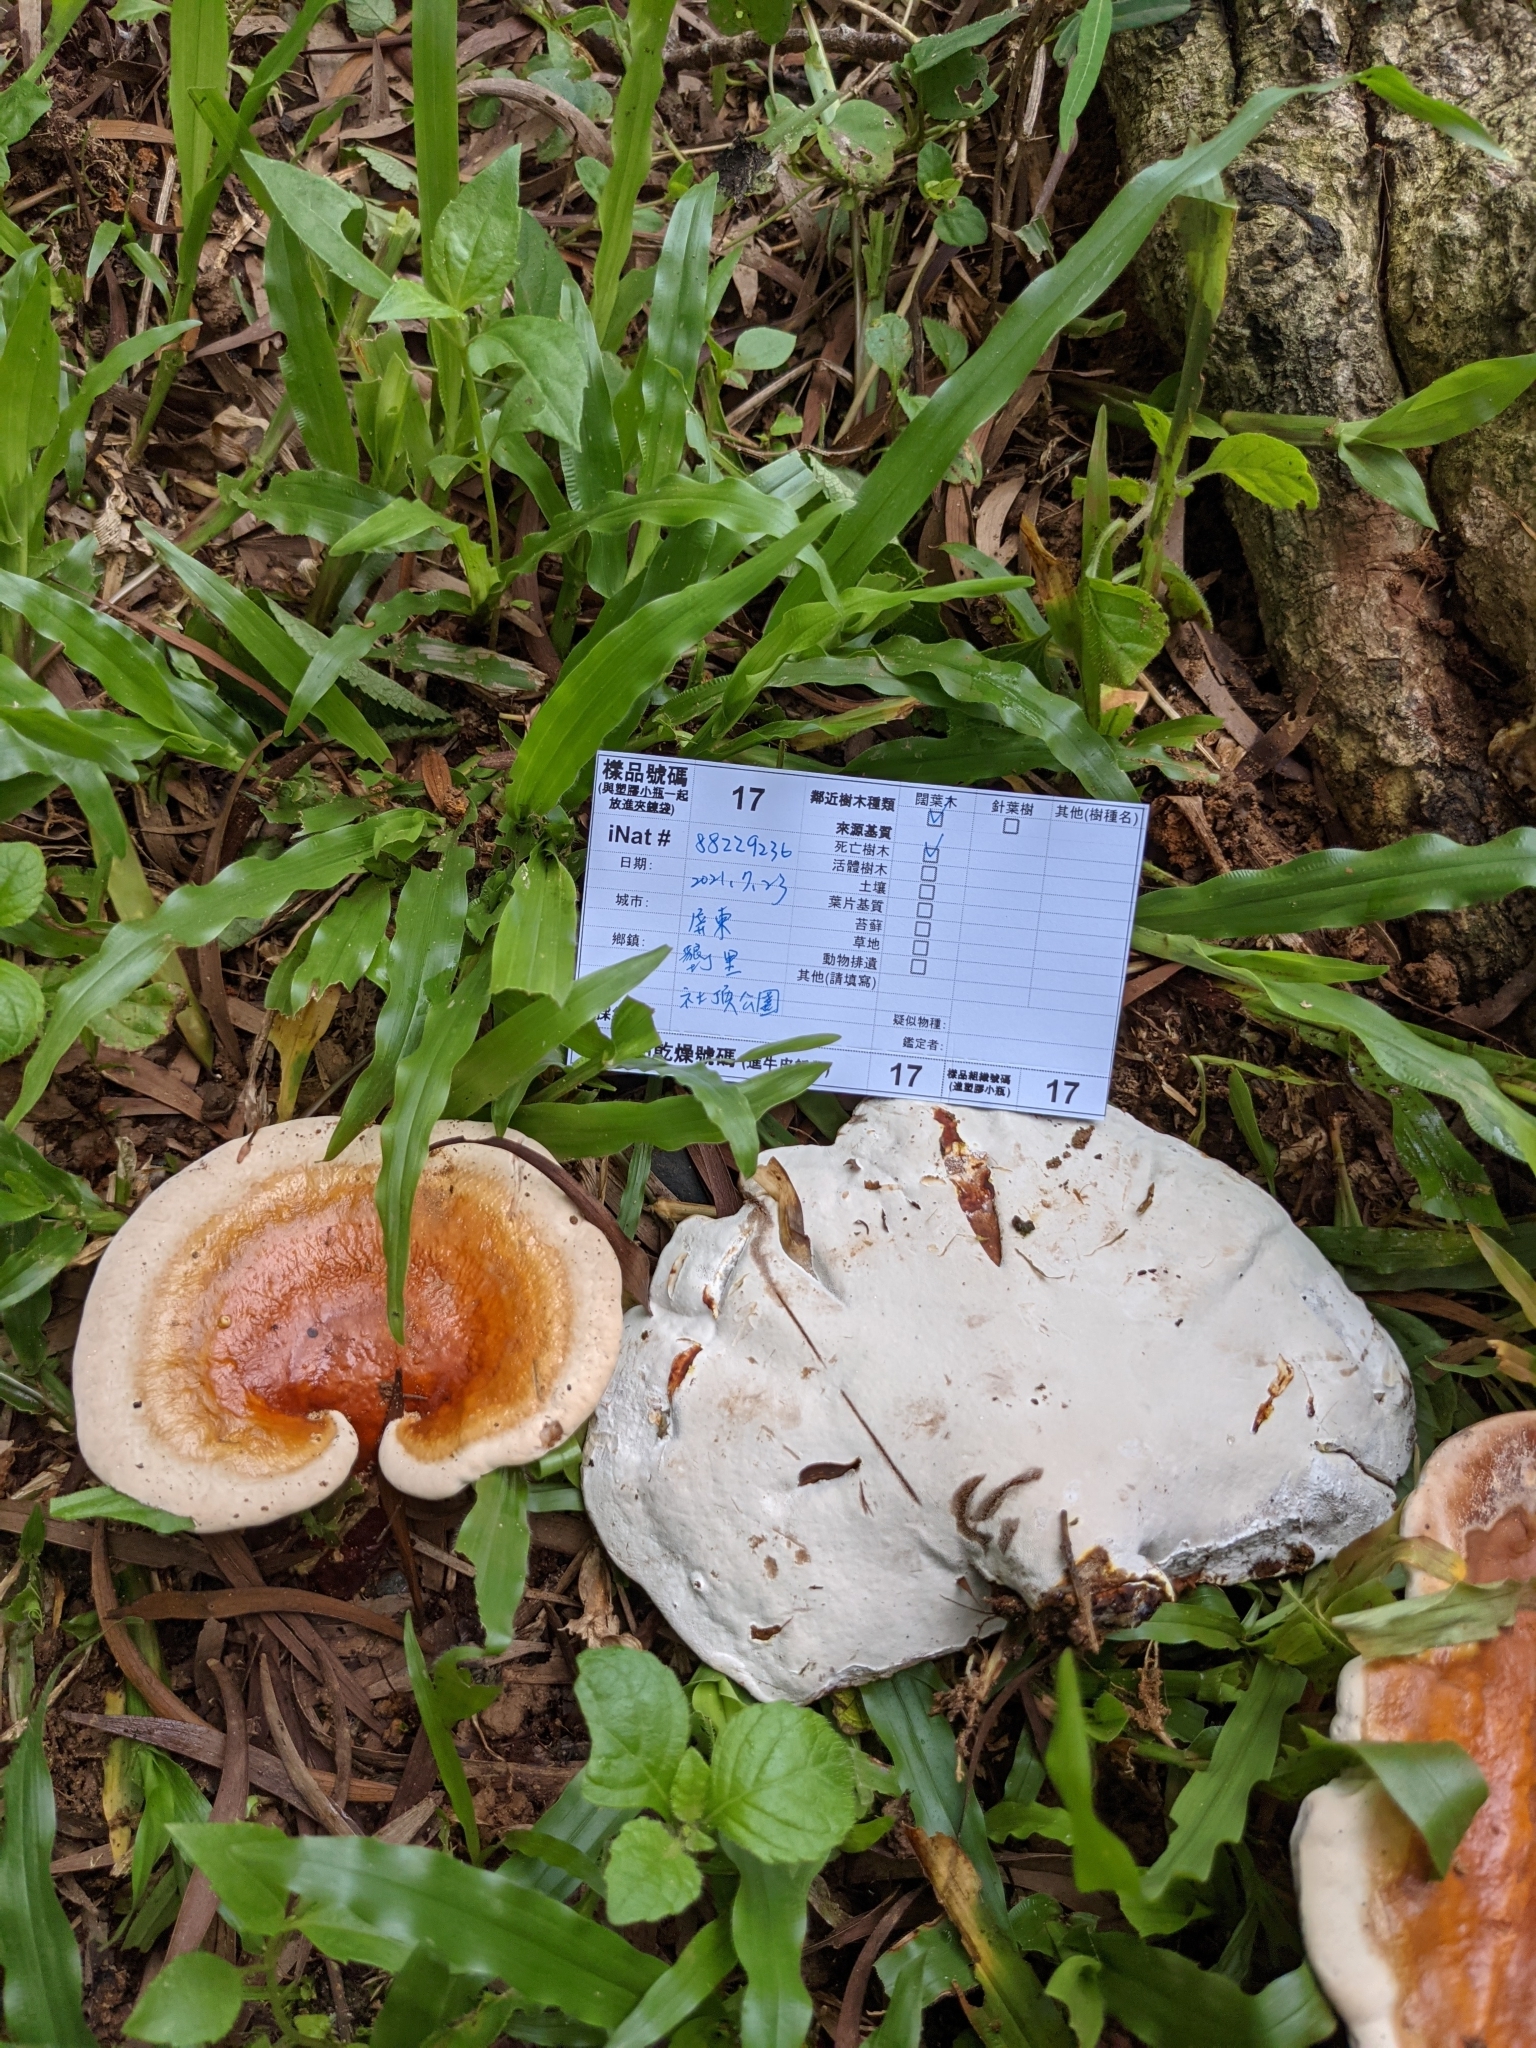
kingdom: Fungi
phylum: Basidiomycota
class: Agaricomycetes
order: Polyporales
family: Polyporaceae
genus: Ganoderma
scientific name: Ganoderma lucidum
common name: Lacquered bracket
